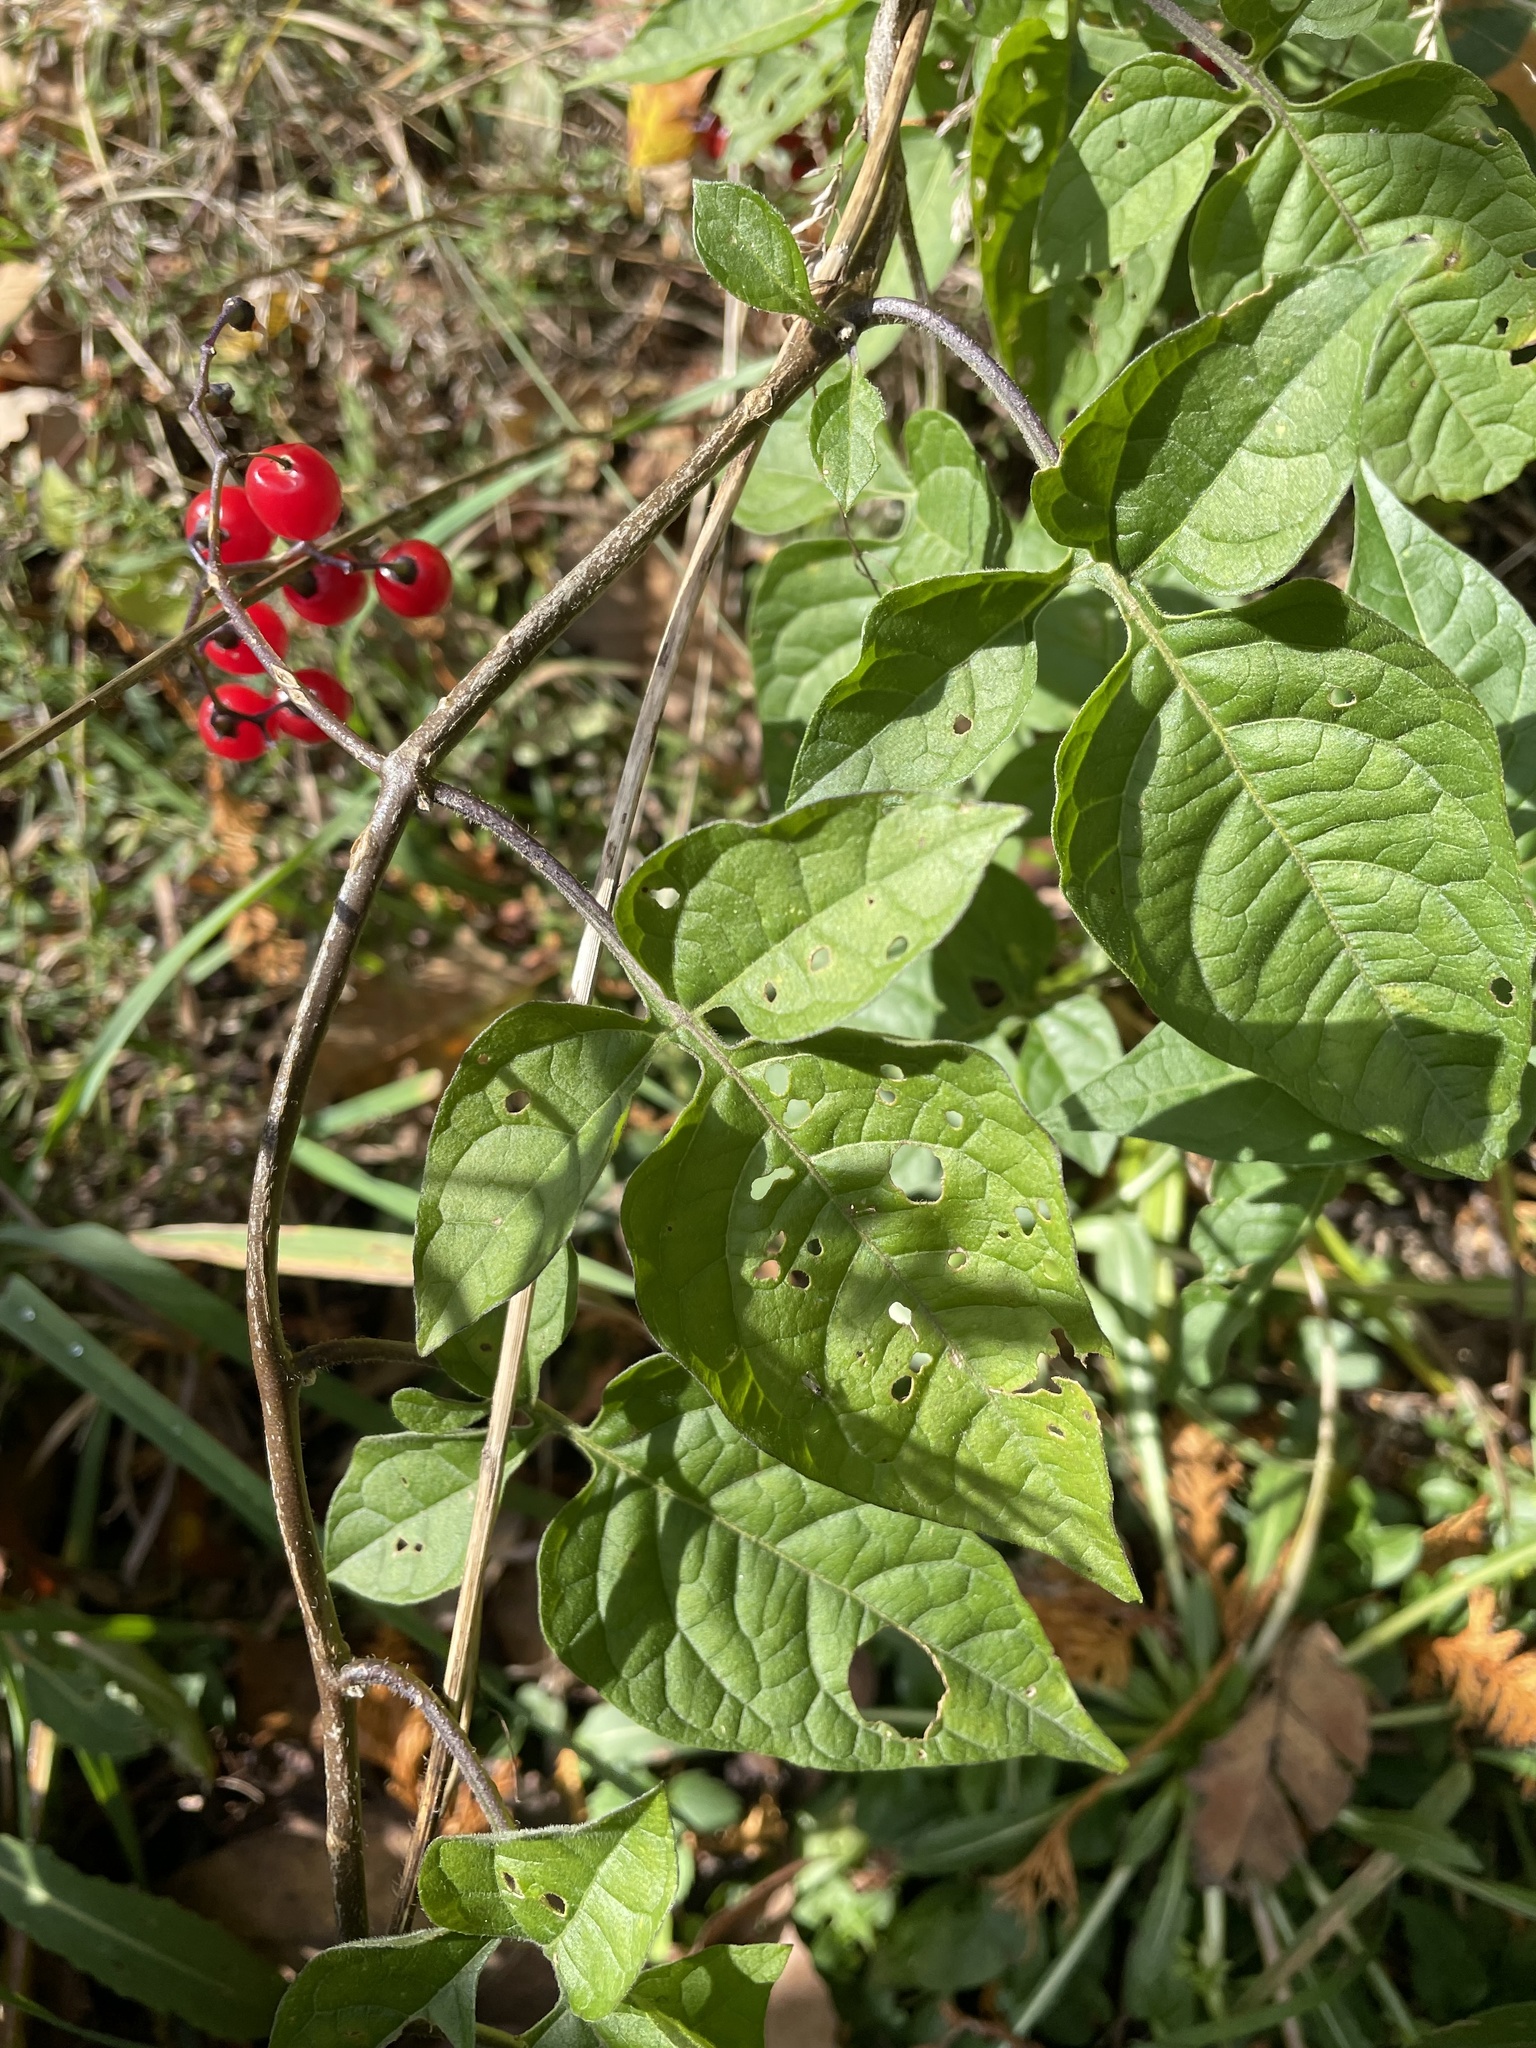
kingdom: Plantae
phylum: Tracheophyta
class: Magnoliopsida
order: Solanales
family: Solanaceae
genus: Solanum
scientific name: Solanum dulcamara
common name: Climbing nightshade
